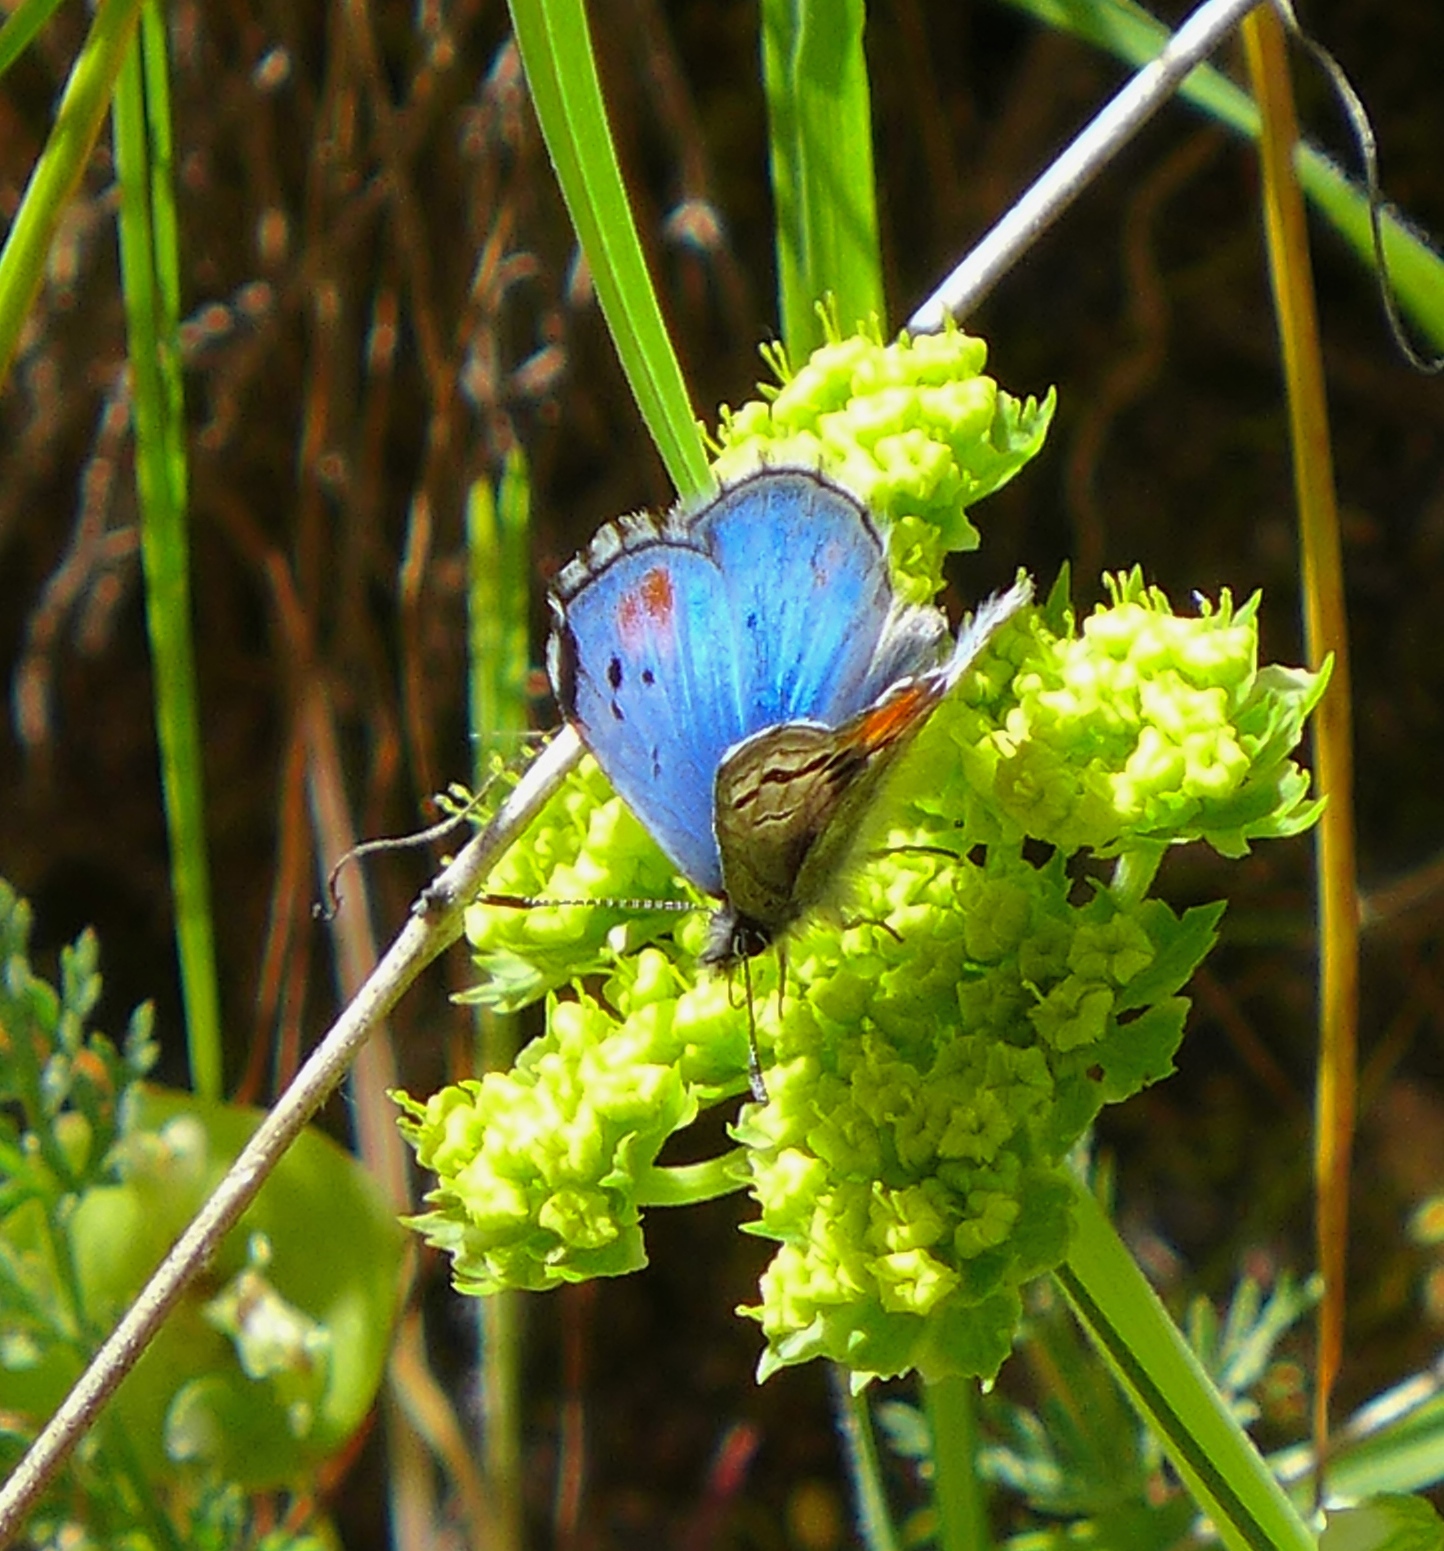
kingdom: Animalia
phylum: Arthropoda
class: Insecta
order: Lepidoptera
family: Lycaenidae
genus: Philotes
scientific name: Philotes sonorensis
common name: Sonoran blue
